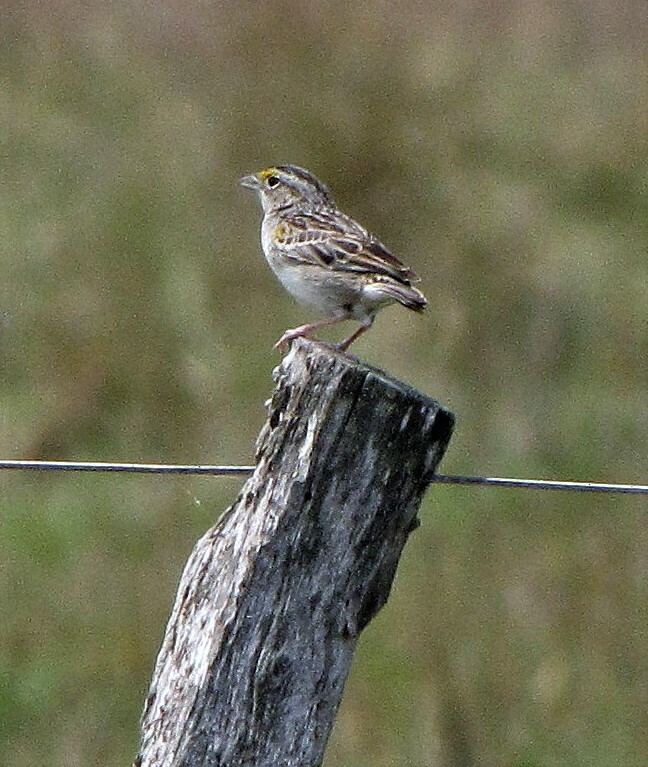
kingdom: Animalia
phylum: Chordata
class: Aves
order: Passeriformes
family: Passerellidae
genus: Ammodramus
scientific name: Ammodramus humeralis
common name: Grassland sparrow
